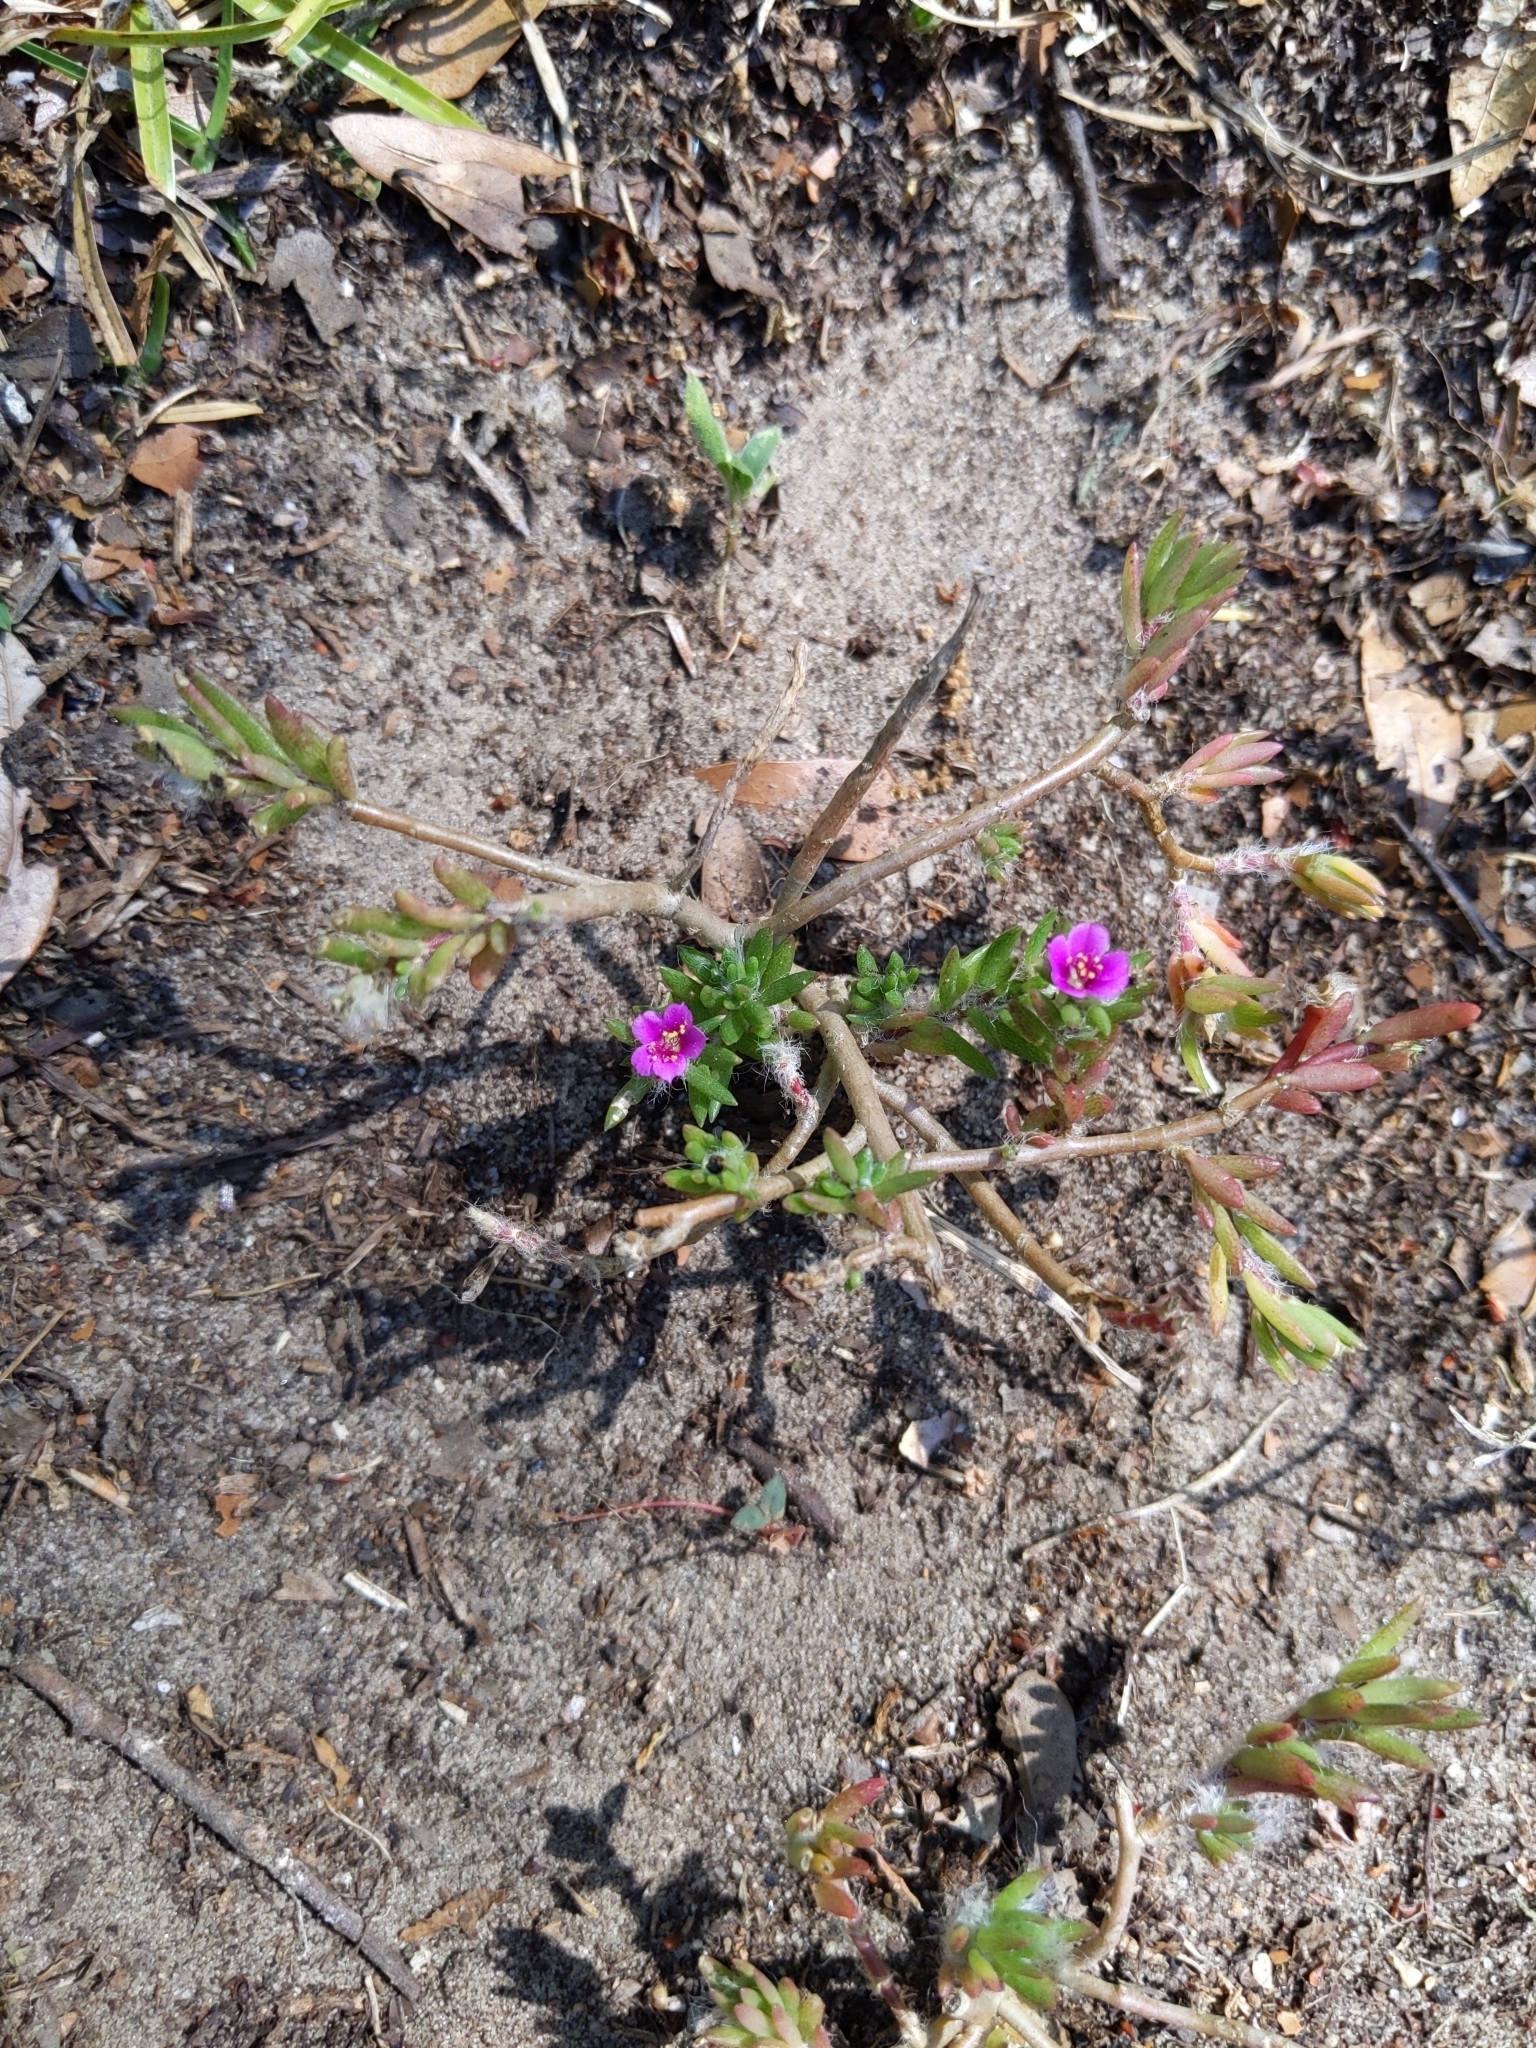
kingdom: Plantae
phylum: Tracheophyta
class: Magnoliopsida
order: Caryophyllales
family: Portulacaceae
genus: Portulaca
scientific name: Portulaca pilosa
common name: Kiss me quick
